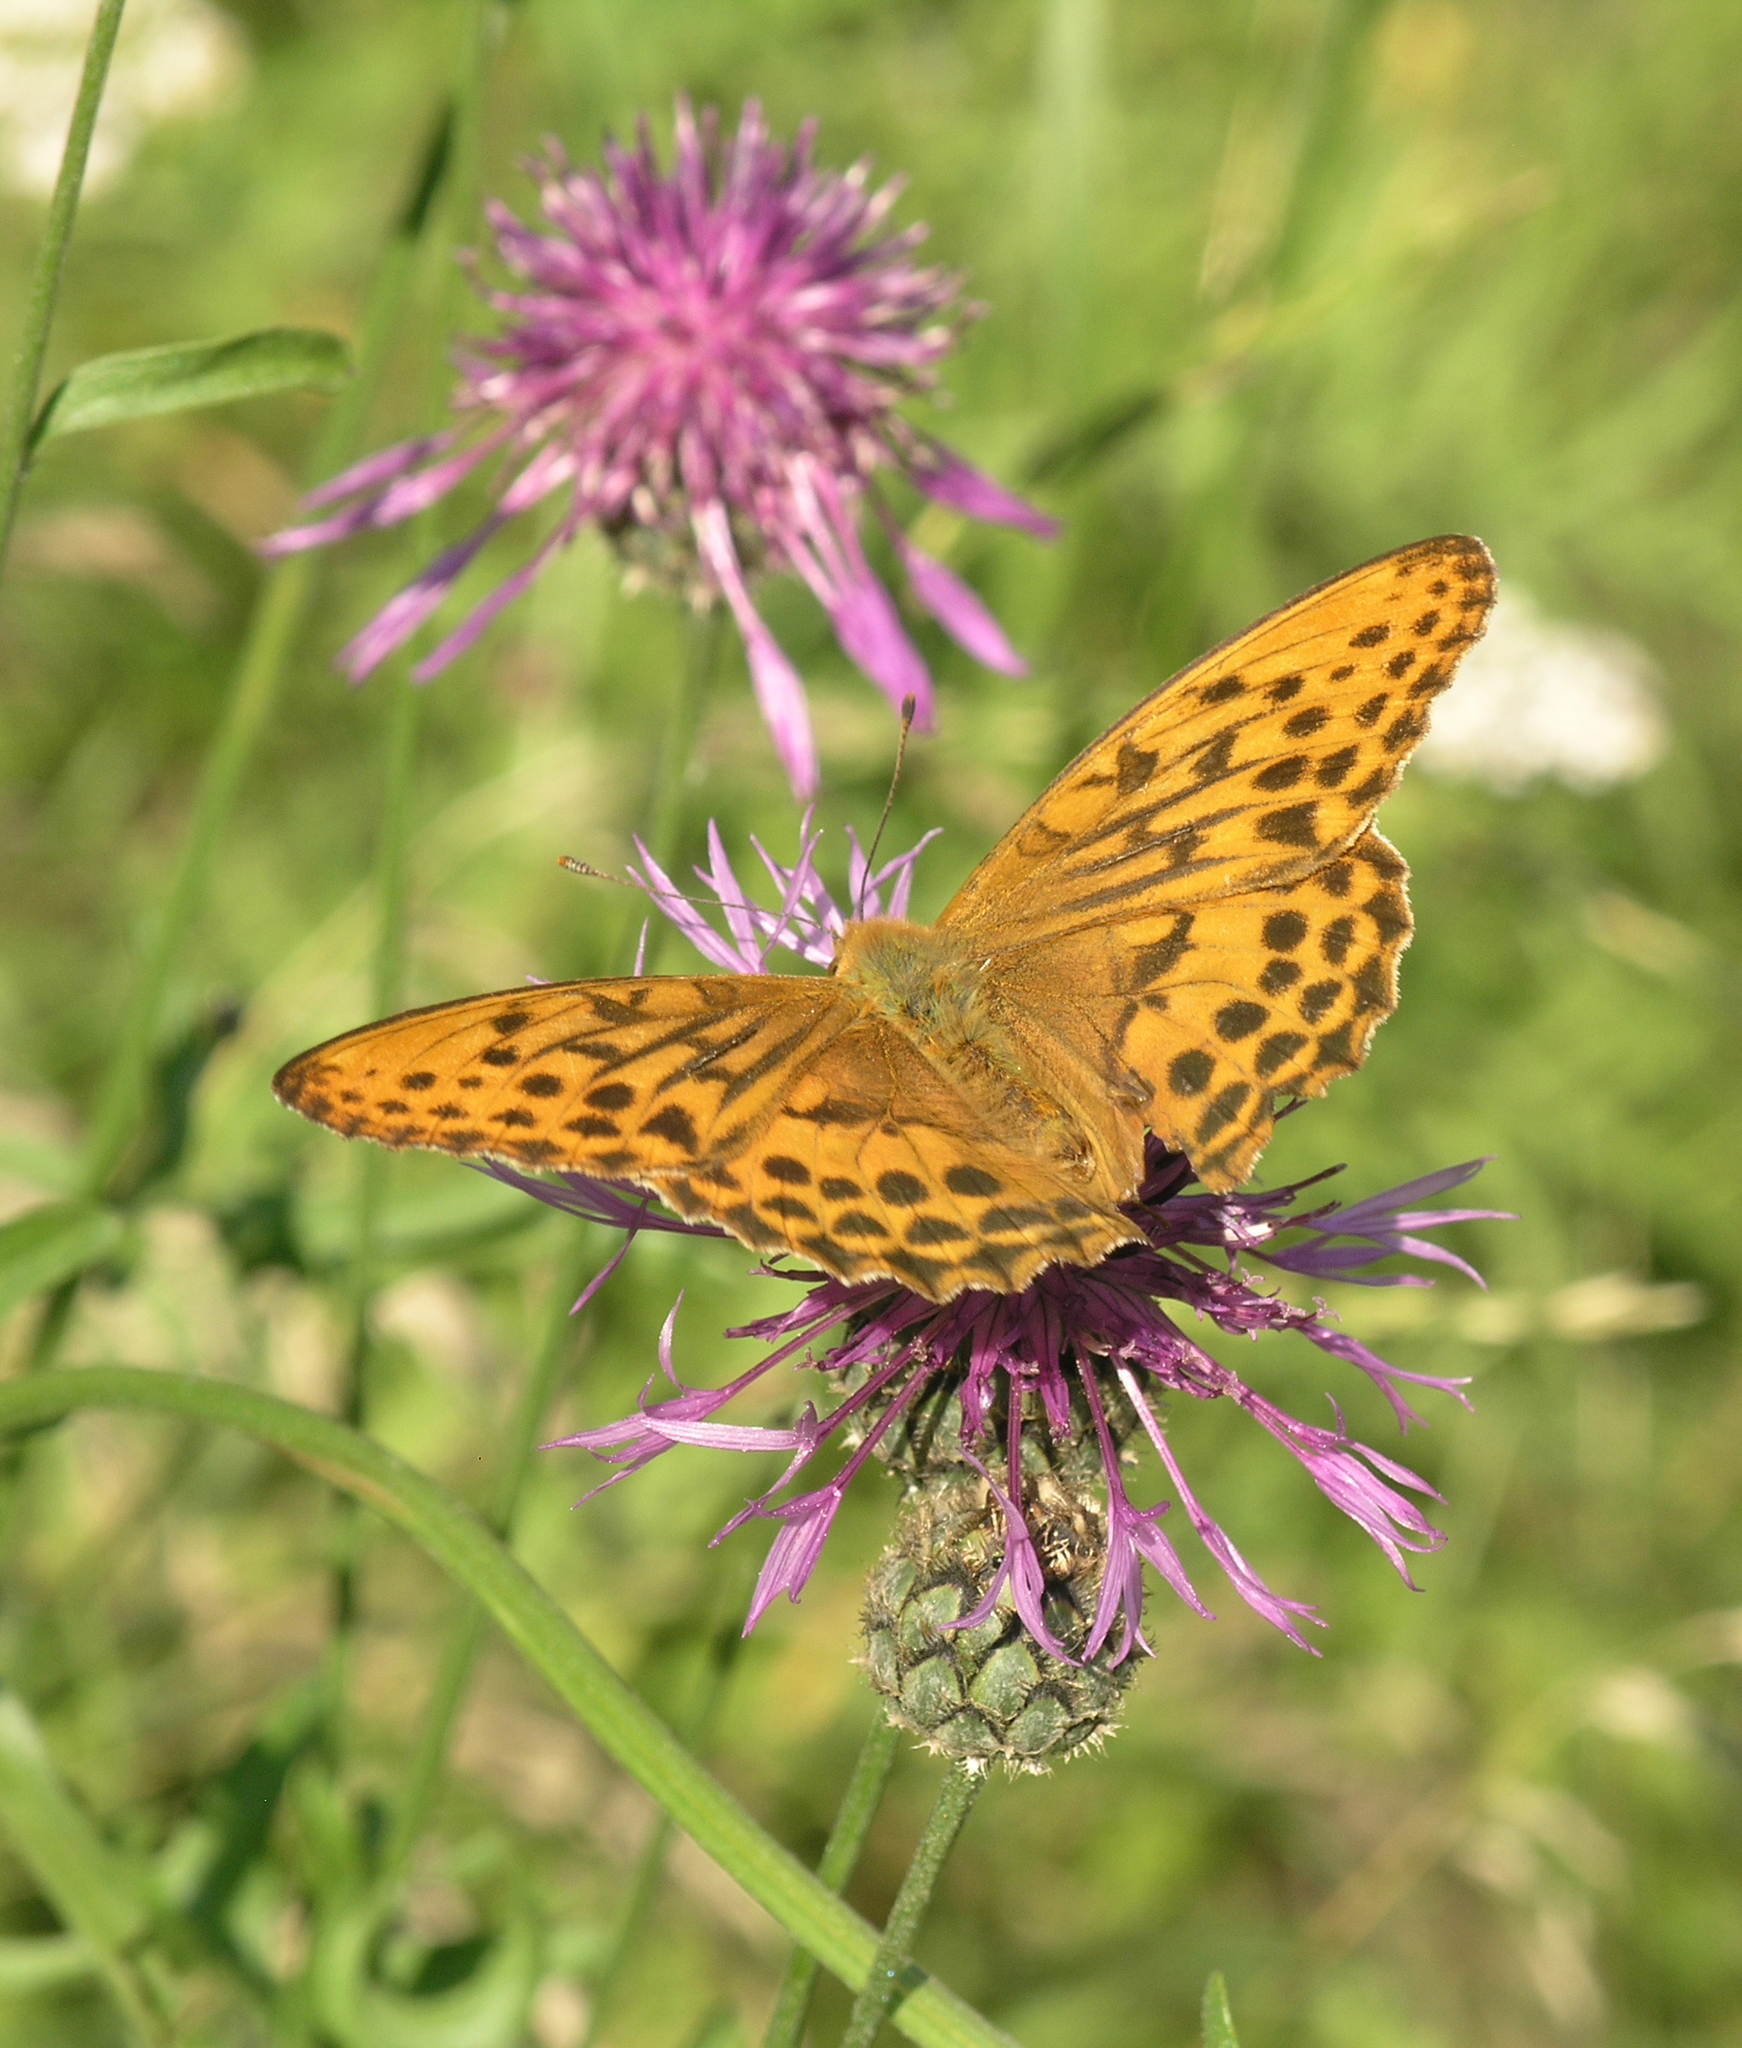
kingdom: Plantae
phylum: Tracheophyta
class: Magnoliopsida
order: Asterales
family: Asteraceae
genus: Centaurea
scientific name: Centaurea scabiosa
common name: Greater knapweed
